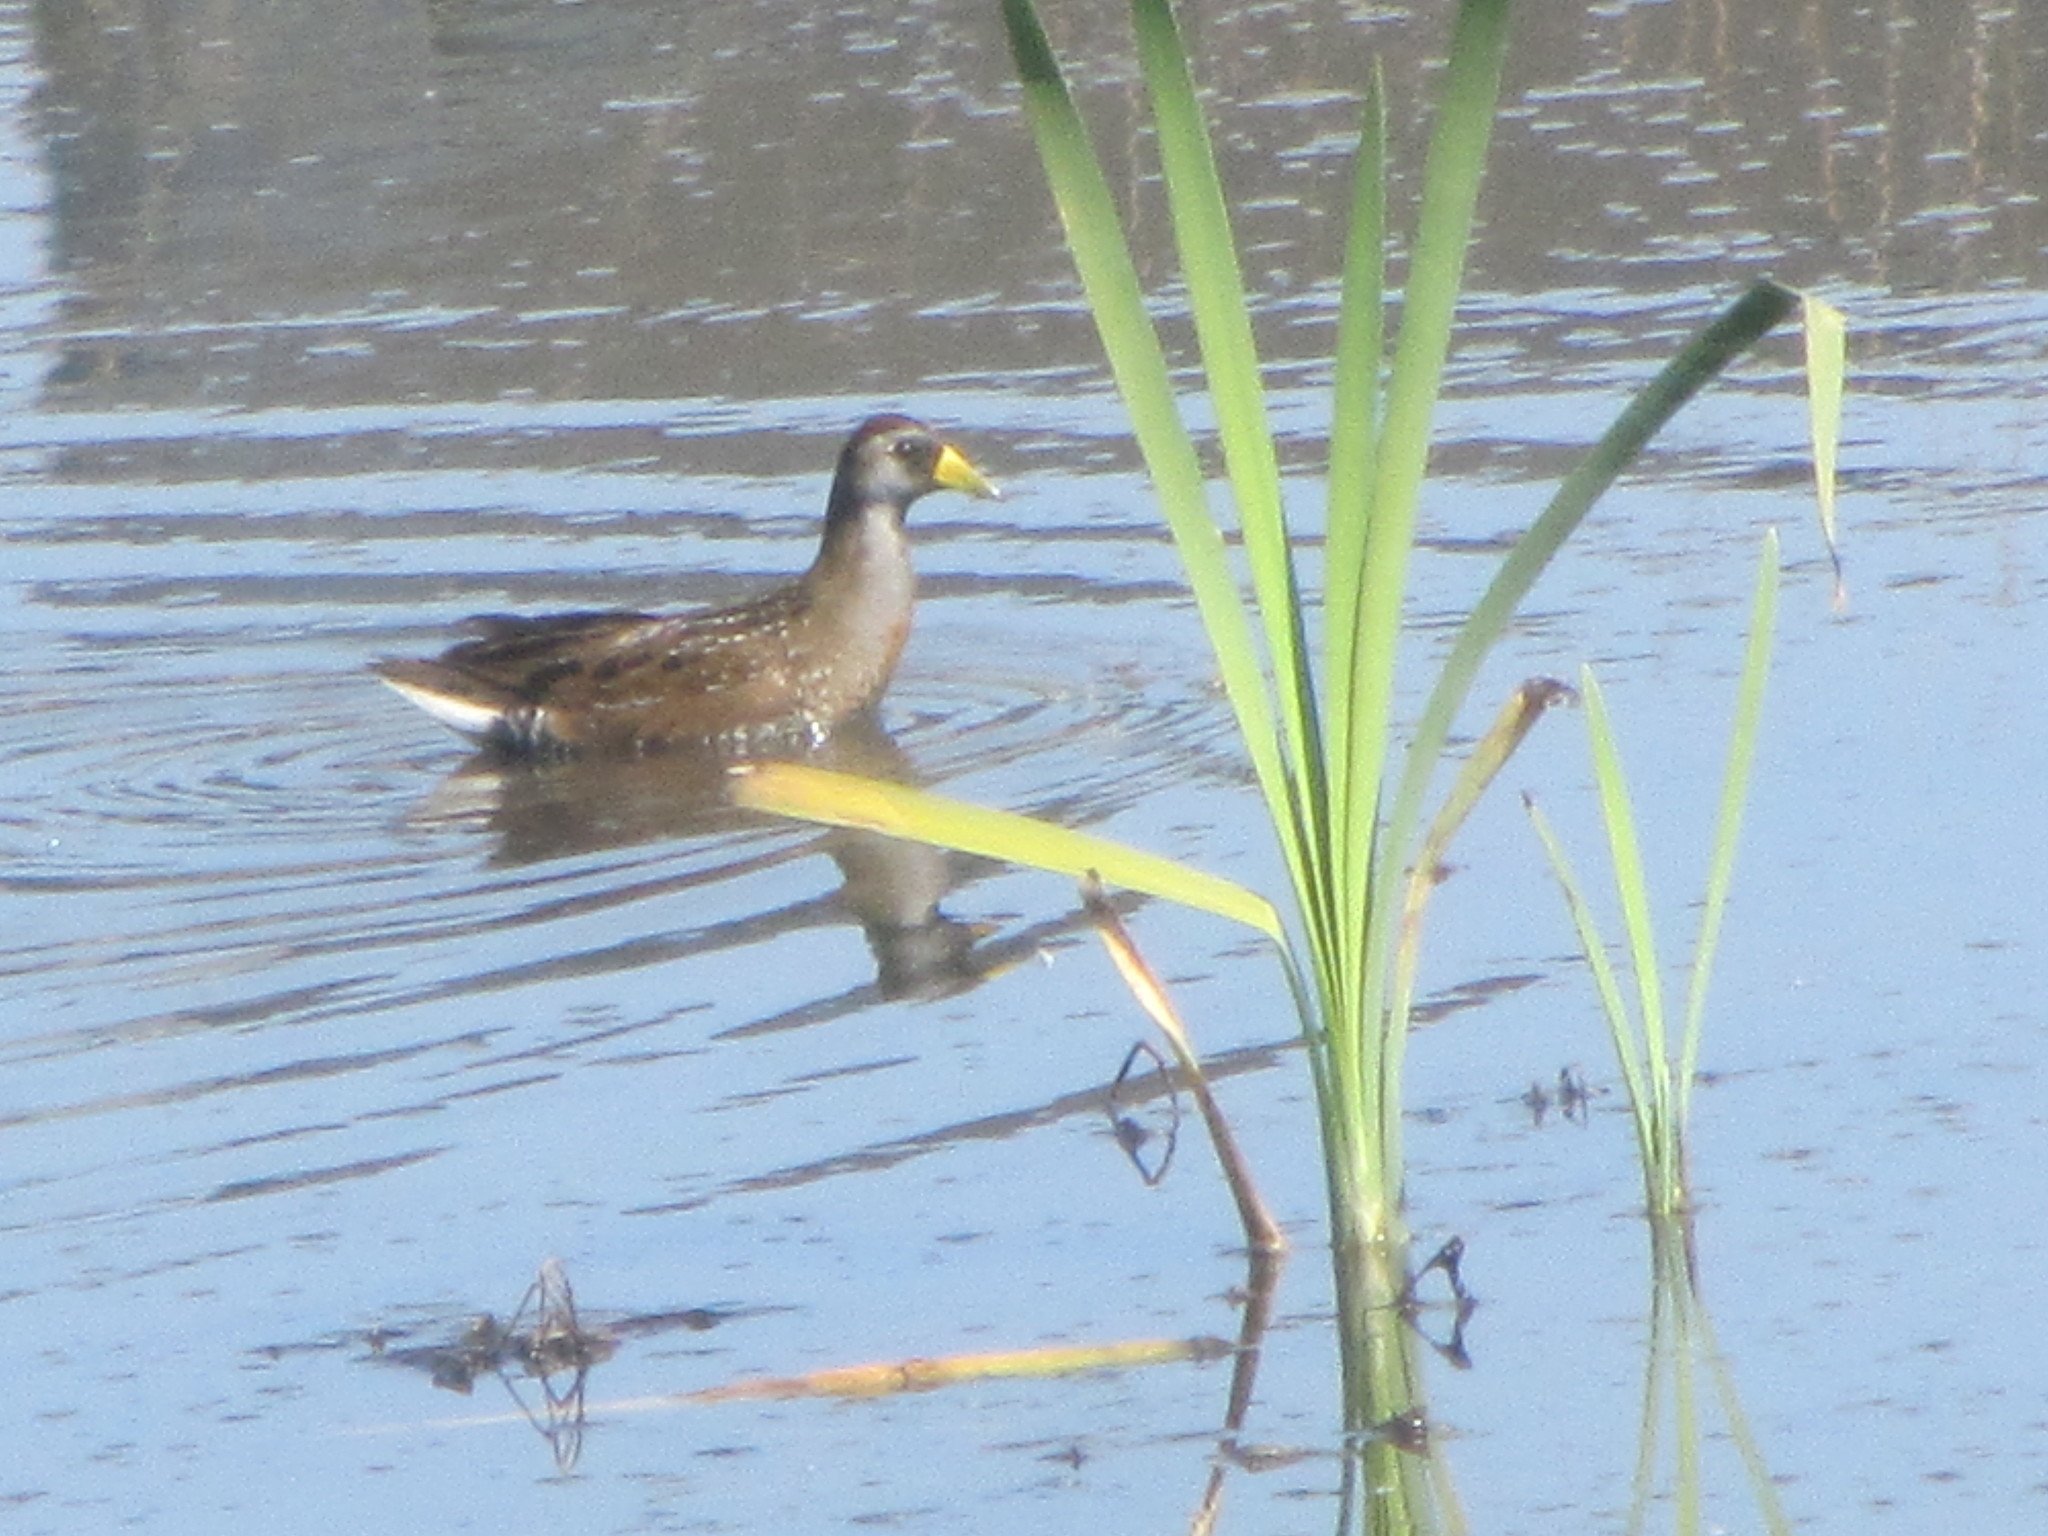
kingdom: Animalia
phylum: Chordata
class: Aves
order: Gruiformes
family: Rallidae
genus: Porzana
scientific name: Porzana carolina
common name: Sora
